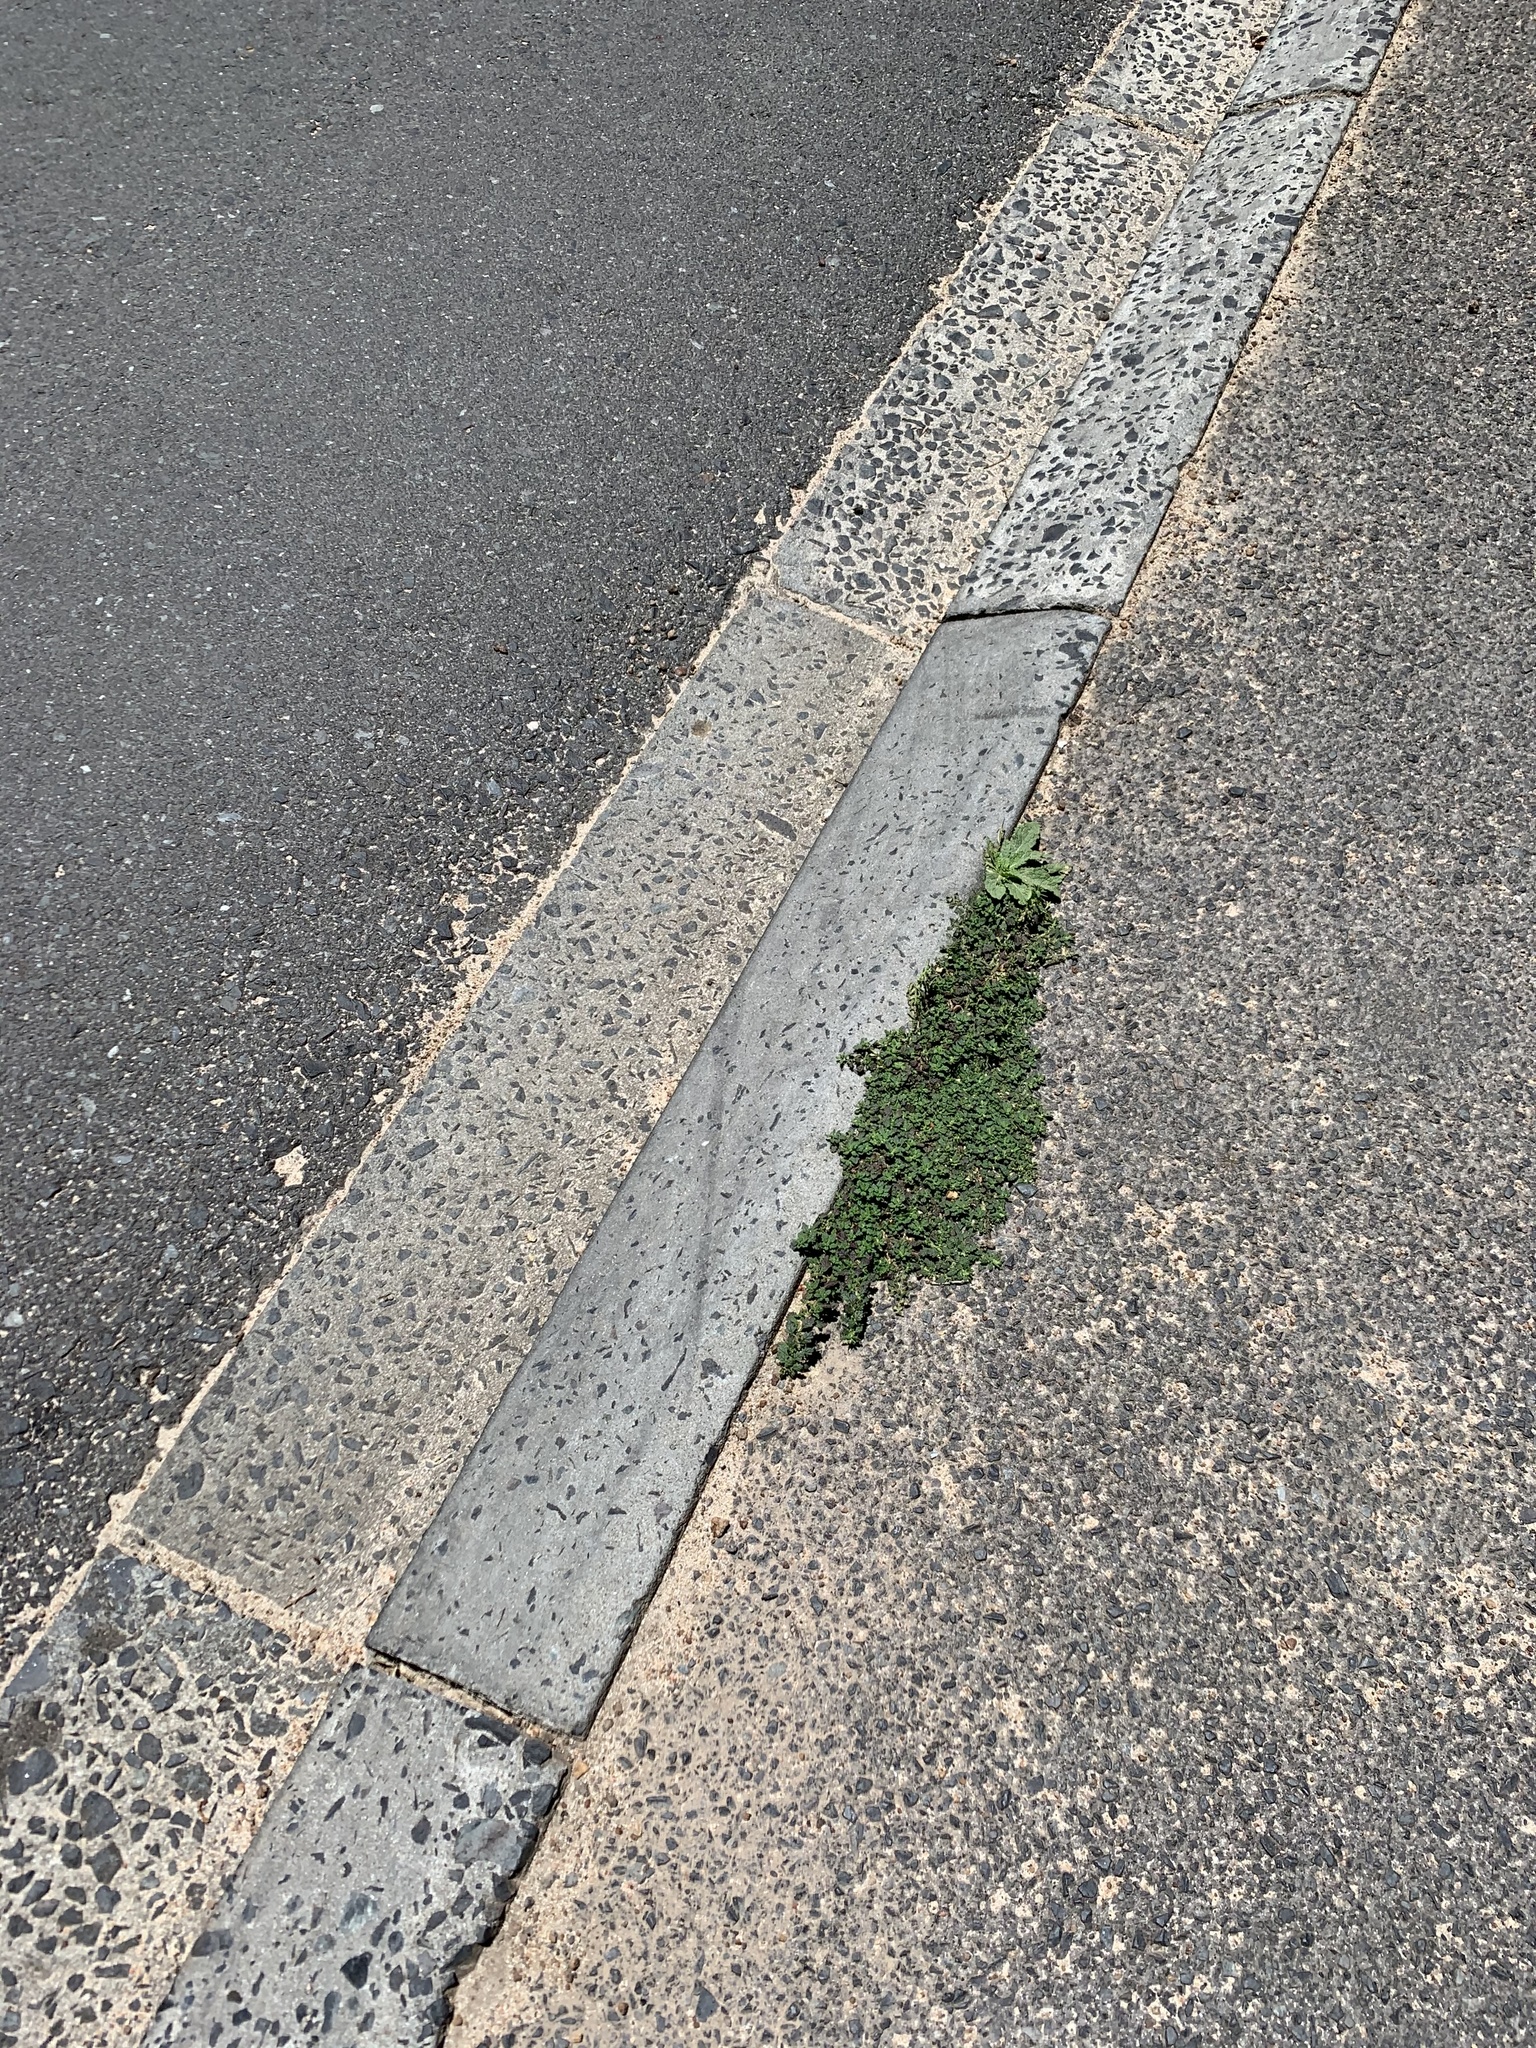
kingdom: Plantae
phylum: Tracheophyta
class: Magnoliopsida
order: Caryophyllales
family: Amaranthaceae
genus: Dysphania
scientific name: Dysphania pumilio
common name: Clammy goosefoot
